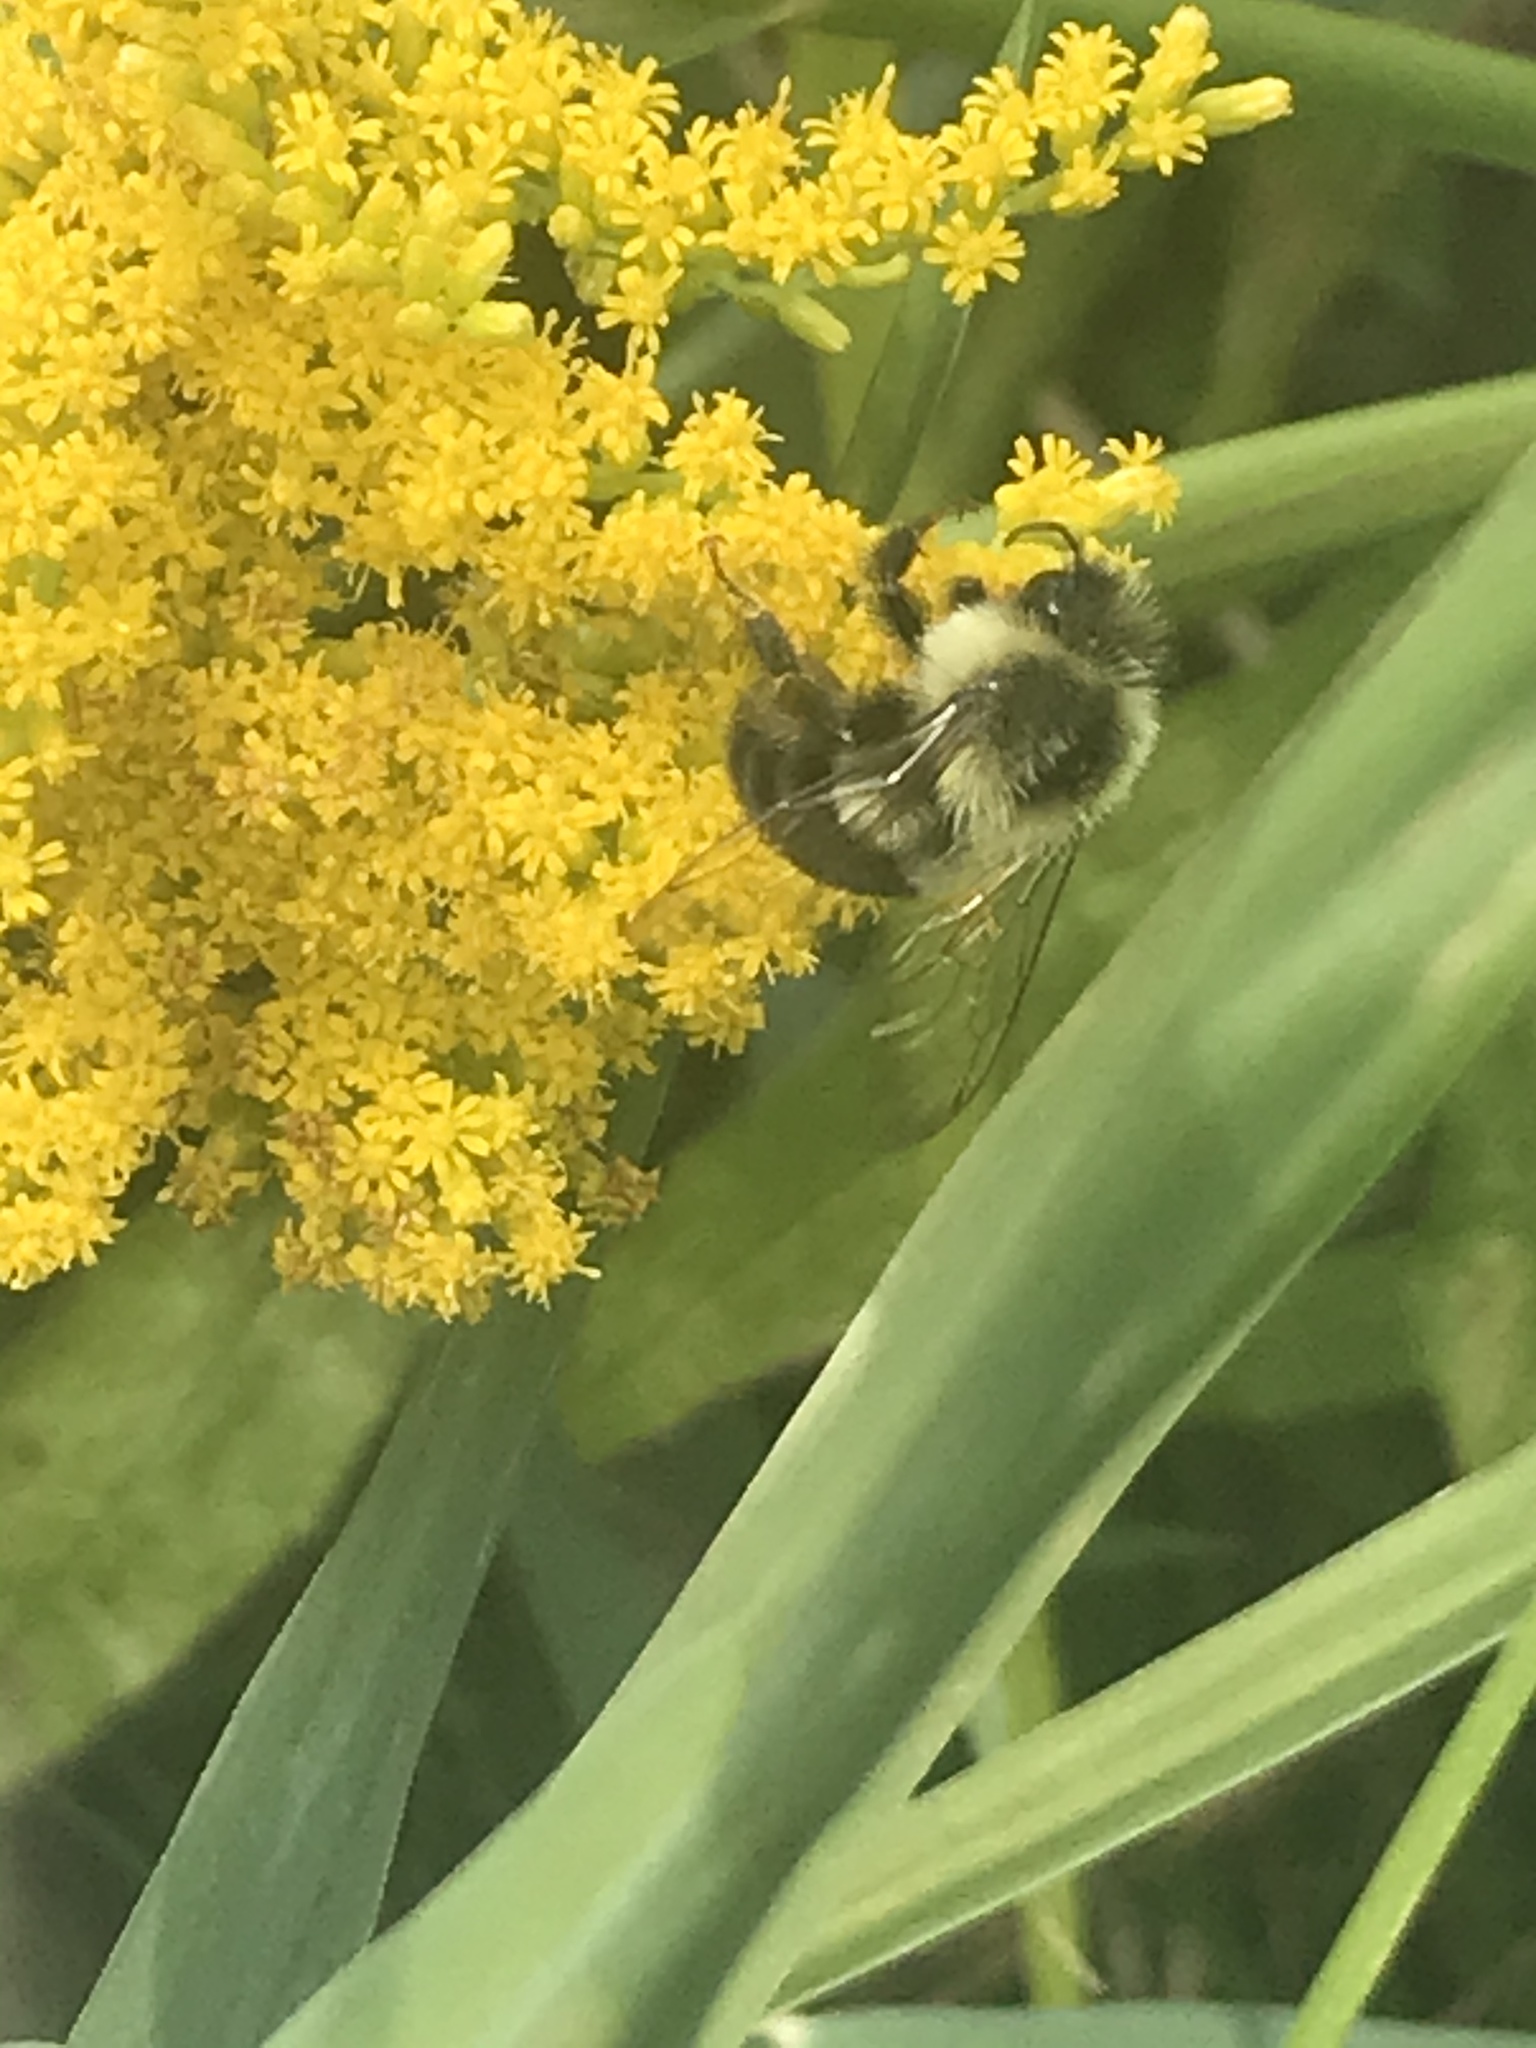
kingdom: Animalia
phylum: Arthropoda
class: Insecta
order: Hymenoptera
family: Apidae
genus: Bombus
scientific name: Bombus impatiens
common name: Common eastern bumble bee
